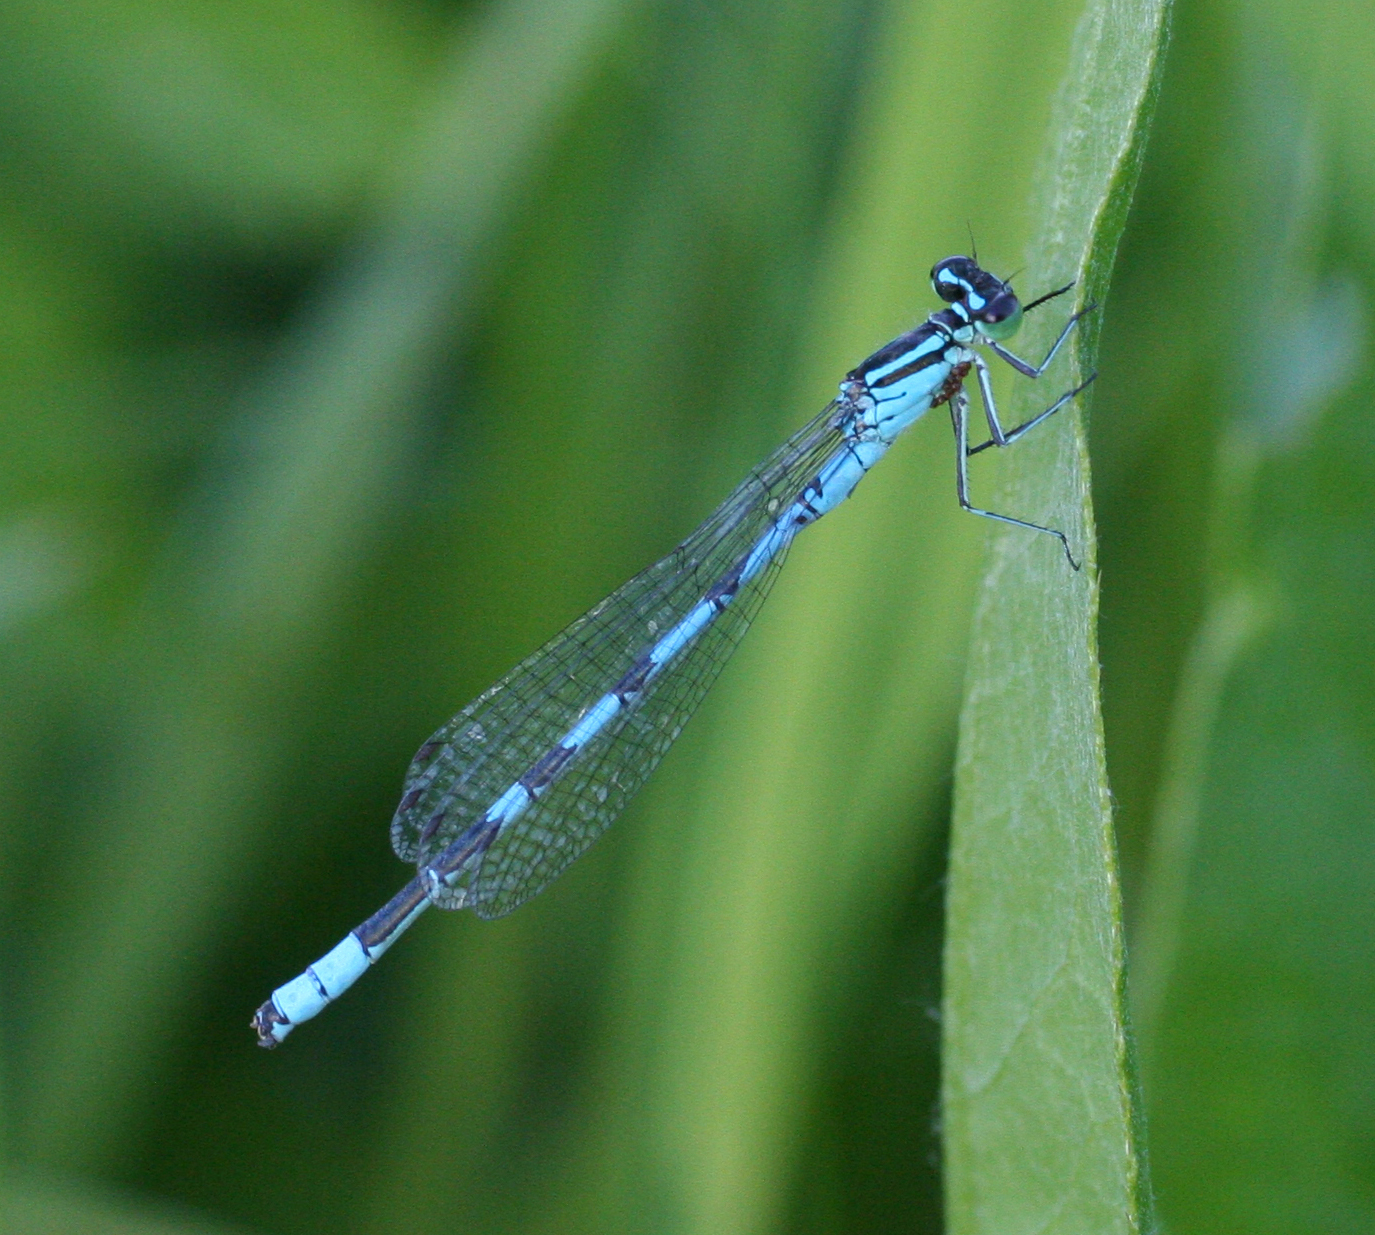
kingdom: Animalia
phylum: Arthropoda
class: Insecta
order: Odonata
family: Coenagrionidae
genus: Coenagrion
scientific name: Coenagrion hastulatum
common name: Spearhead bluet
